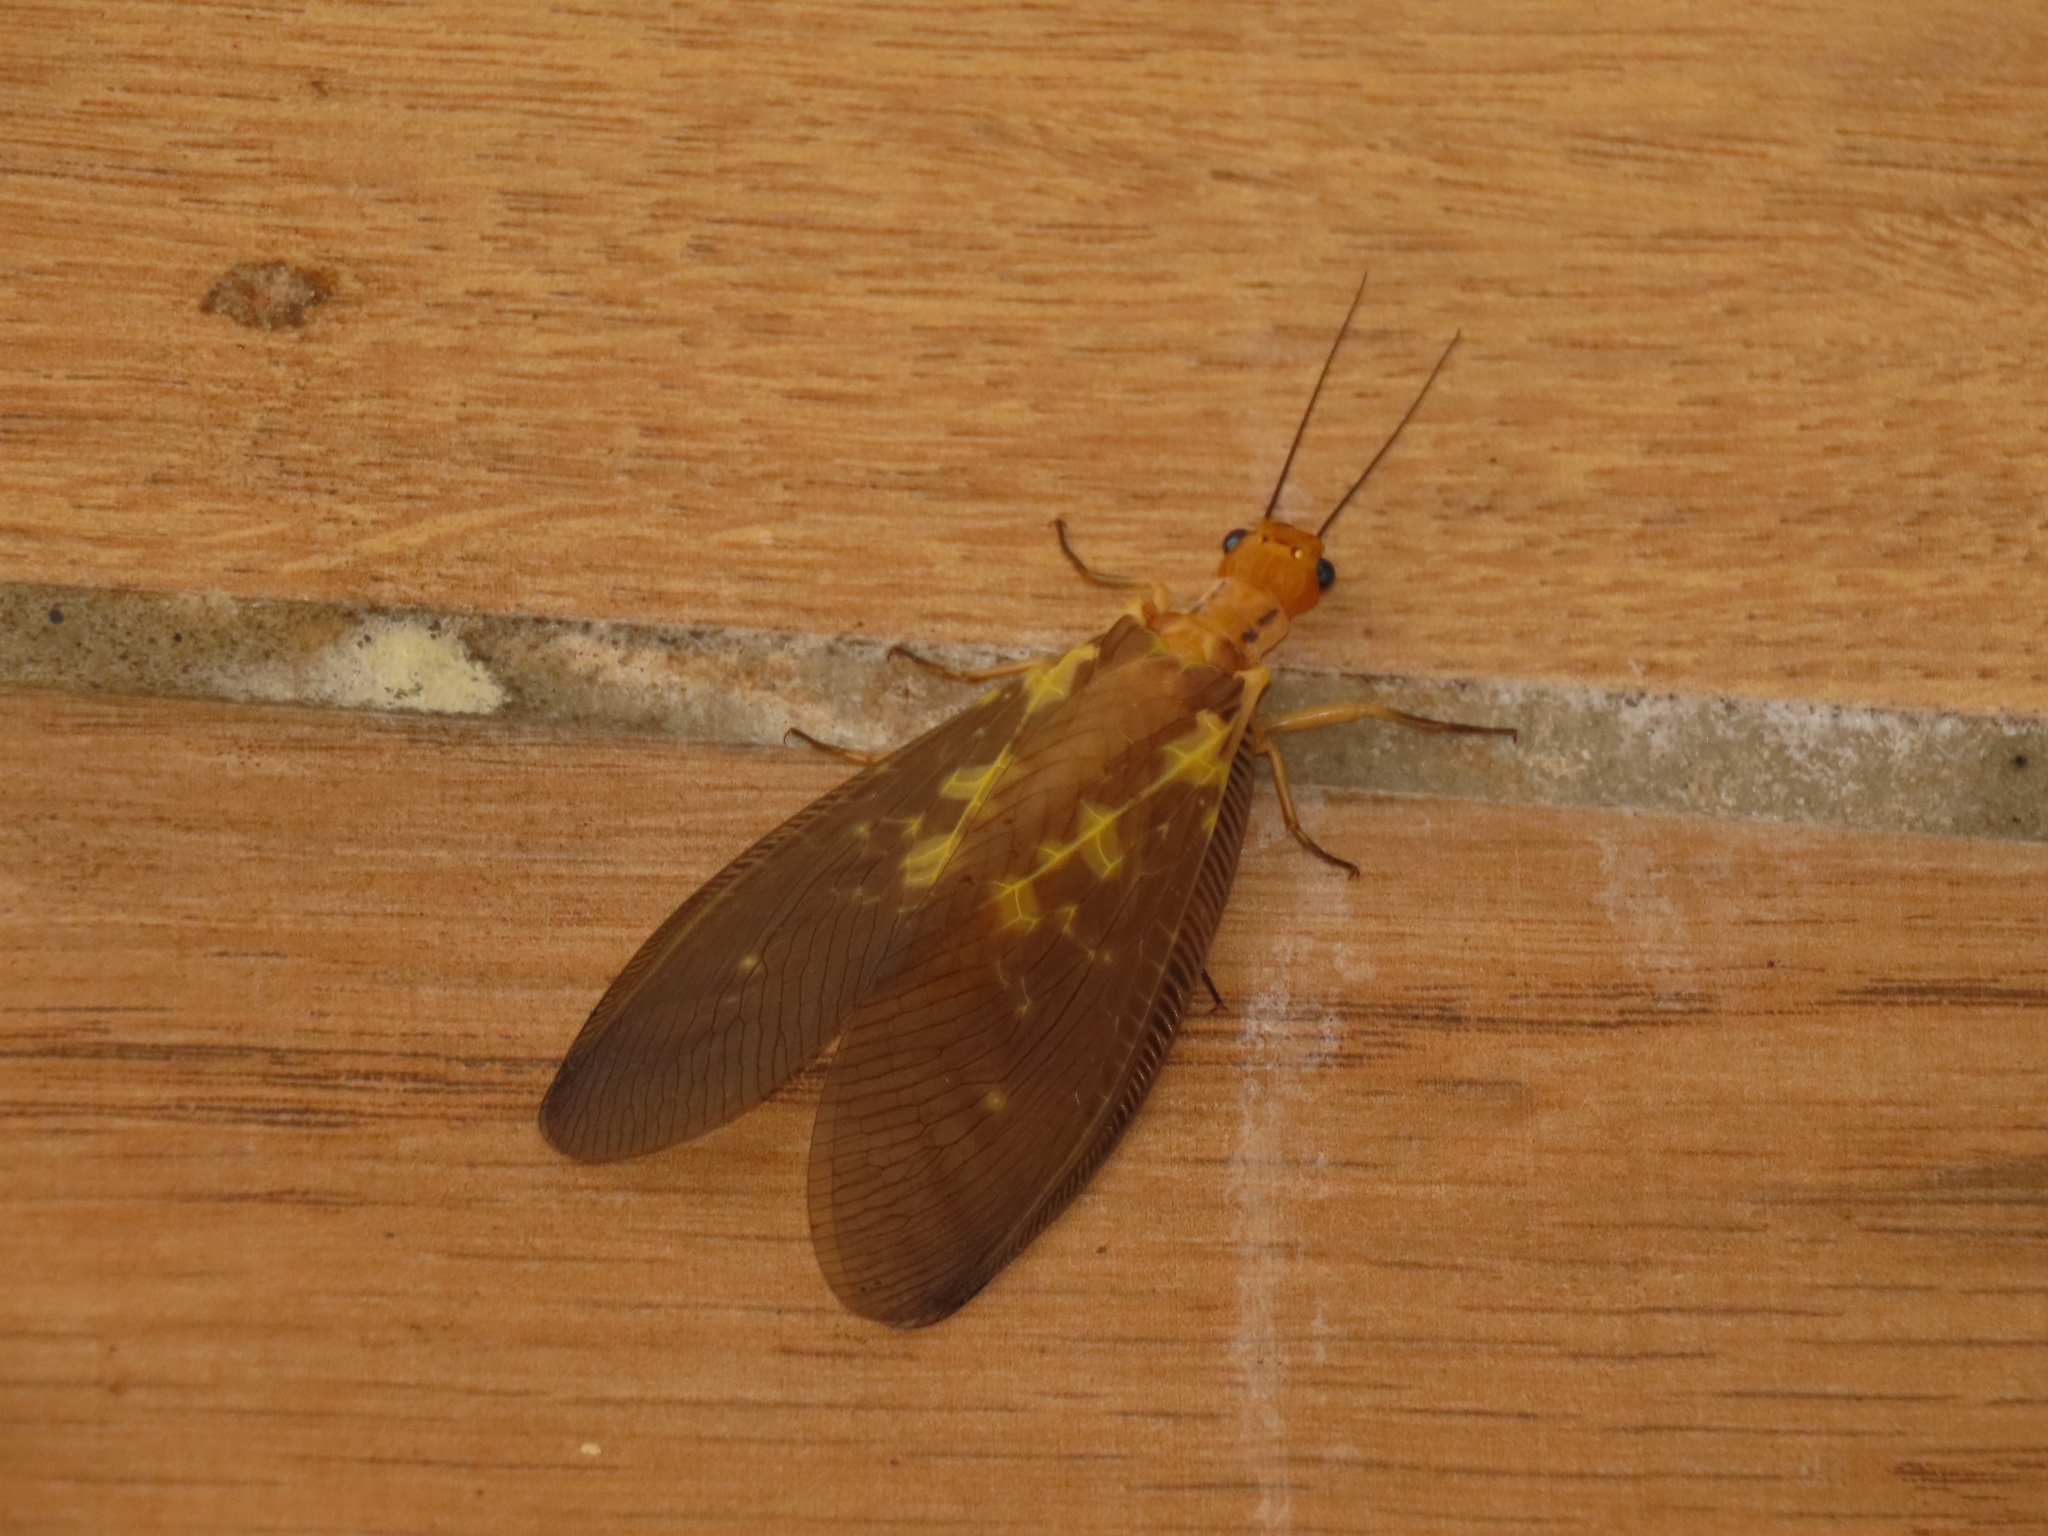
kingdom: Animalia
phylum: Arthropoda
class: Insecta
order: Megaloptera
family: Corydalidae
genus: Protohermes
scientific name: Protohermes costalis
